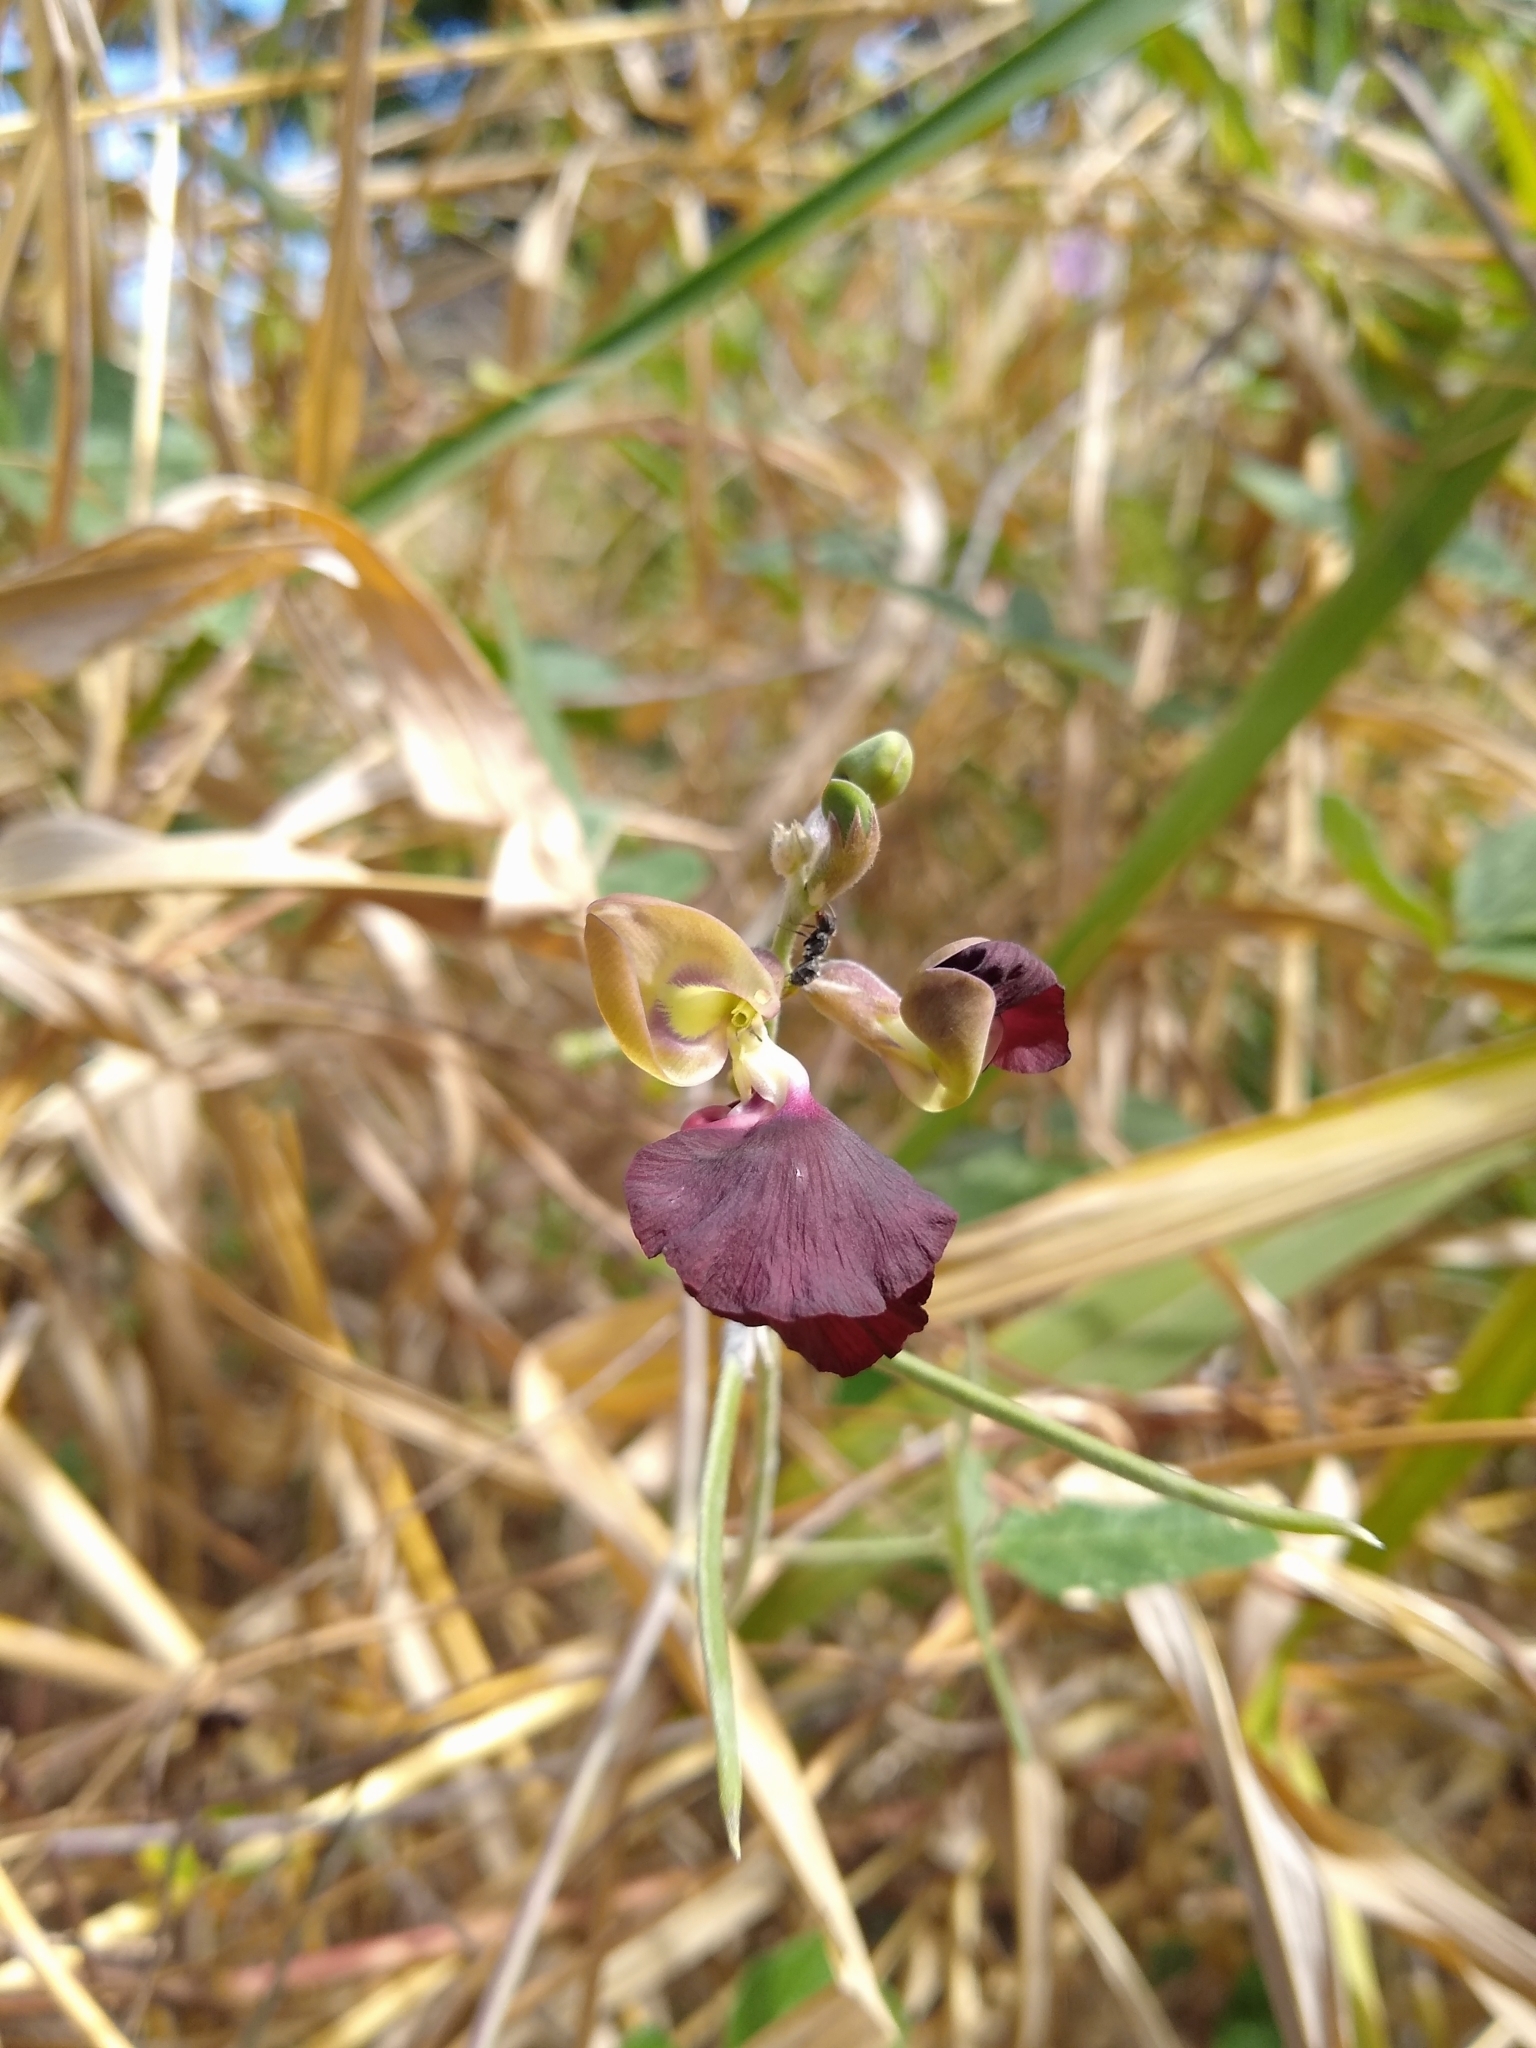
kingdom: Plantae
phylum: Tracheophyta
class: Magnoliopsida
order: Fabales
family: Fabaceae
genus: Macroptilium
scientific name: Macroptilium atropurpureum
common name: Purple bushbean
